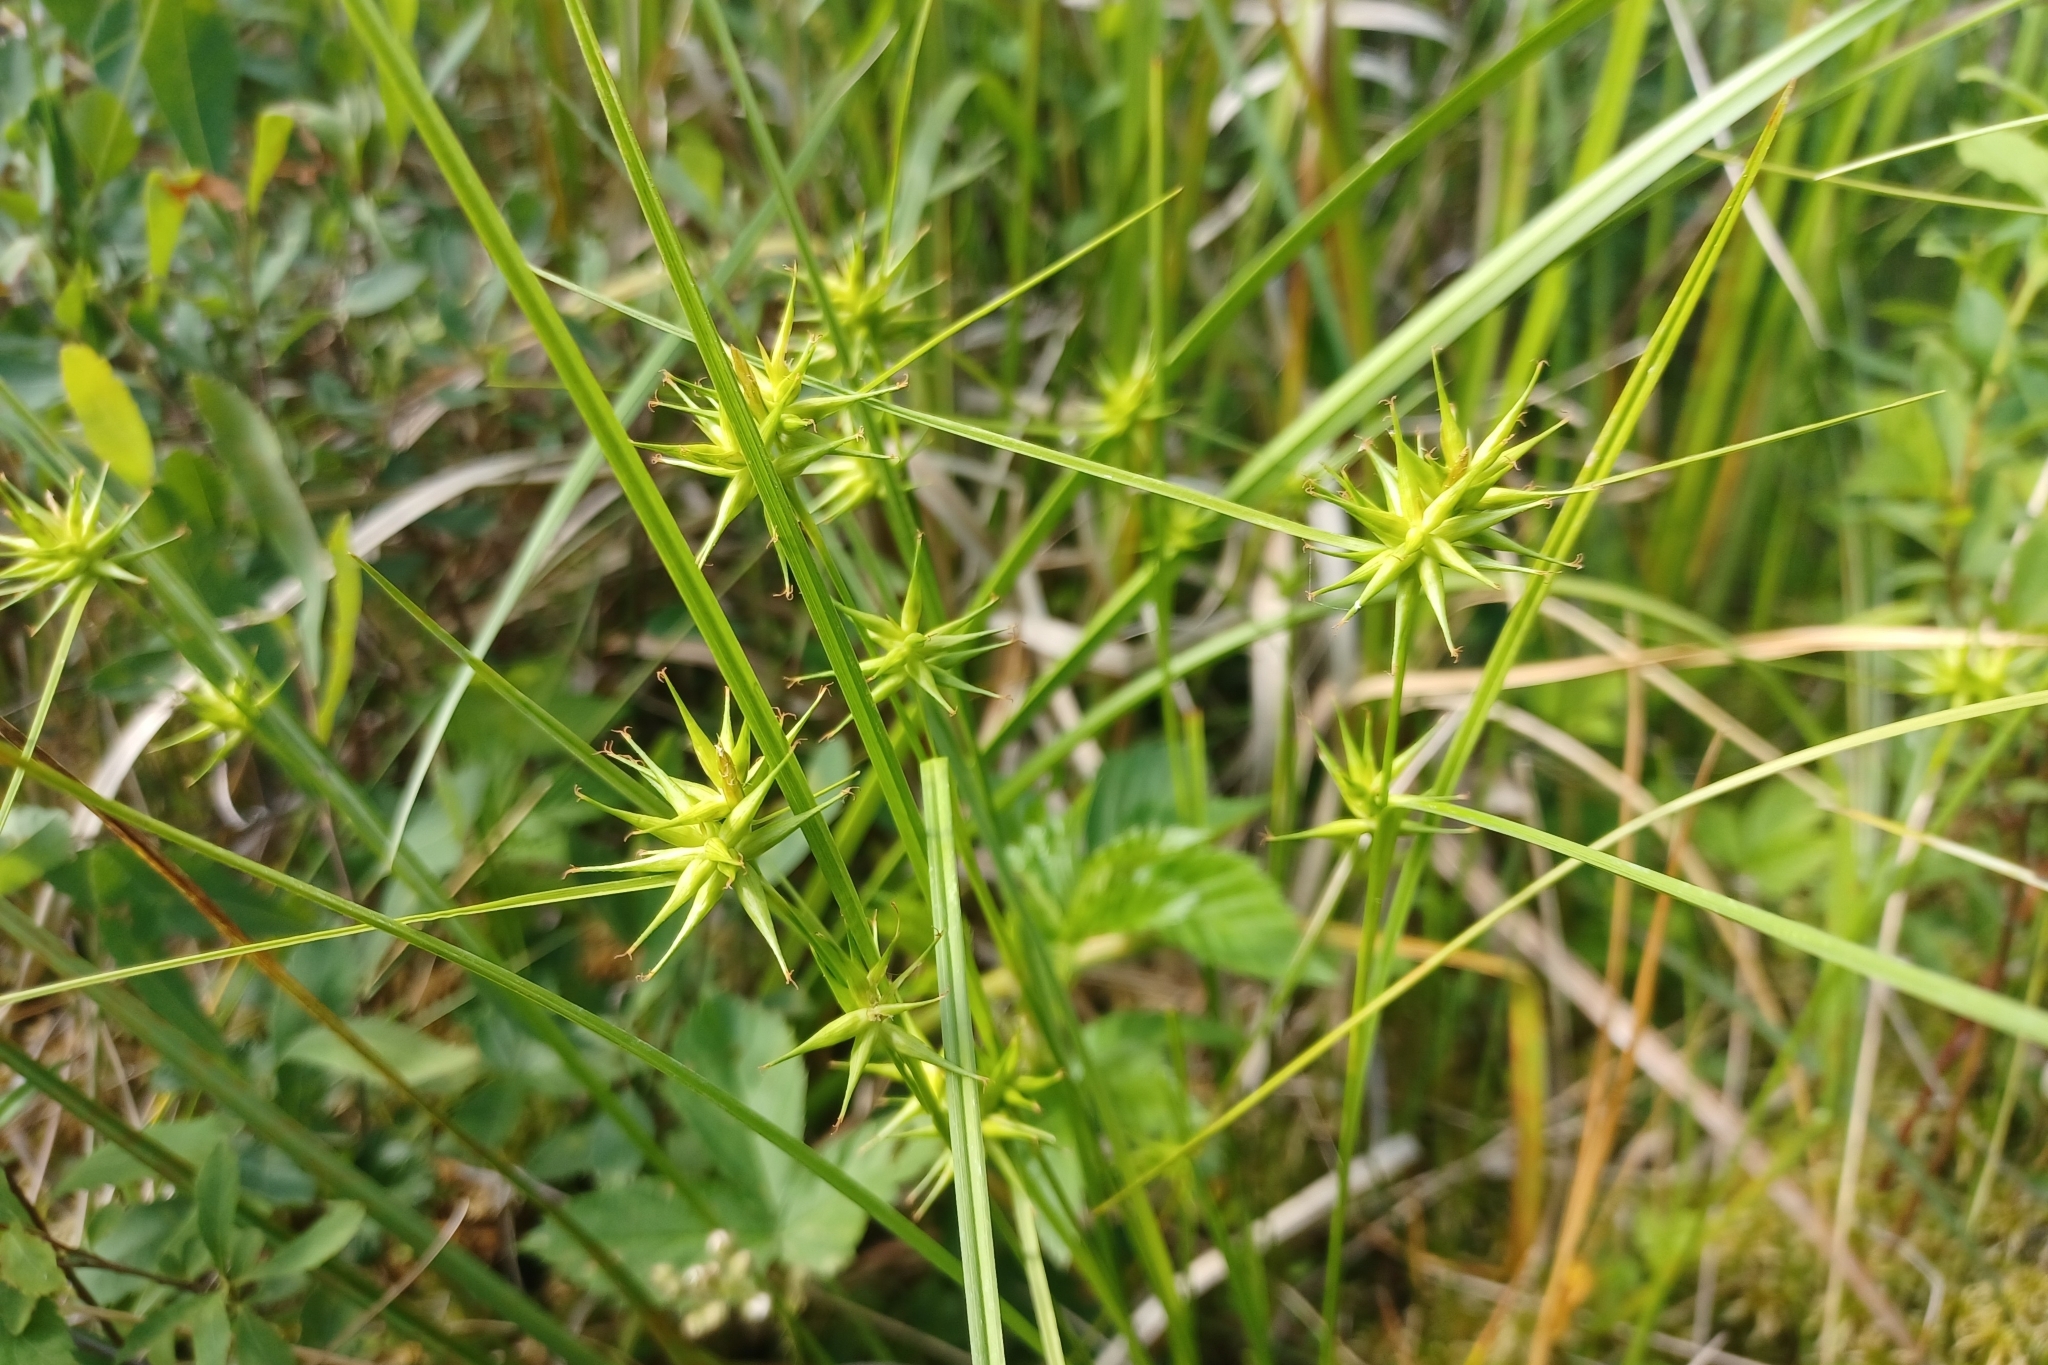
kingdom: Plantae
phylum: Tracheophyta
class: Liliopsida
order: Poales
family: Cyperaceae
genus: Carex
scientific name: Carex michauxiana
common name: Michaux's sedge
